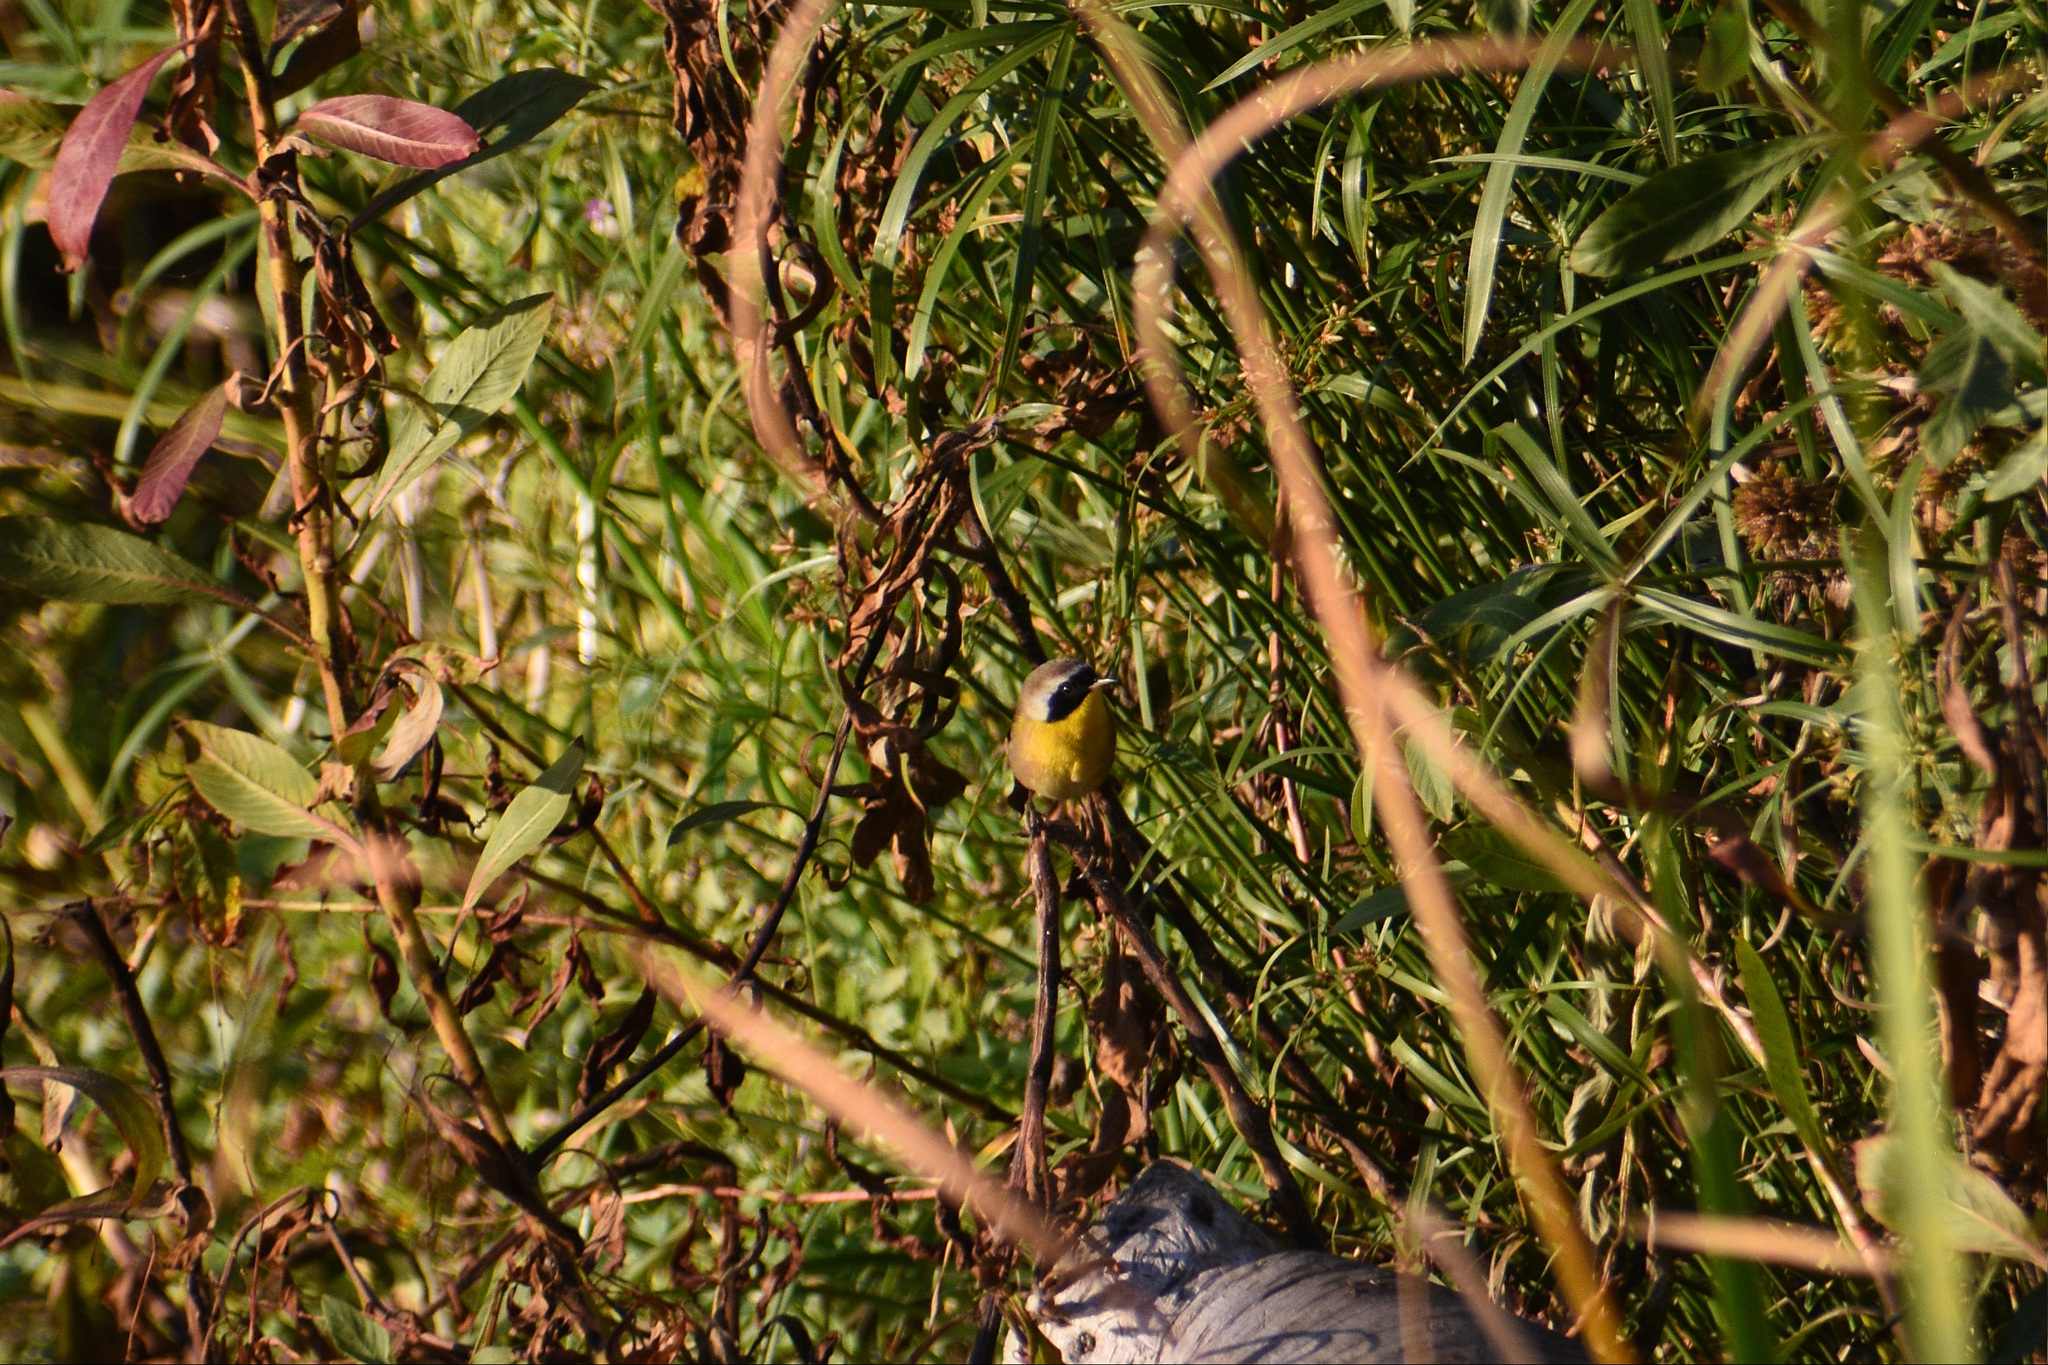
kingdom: Animalia
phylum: Chordata
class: Aves
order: Passeriformes
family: Parulidae
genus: Geothlypis
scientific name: Geothlypis trichas
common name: Common yellowthroat
